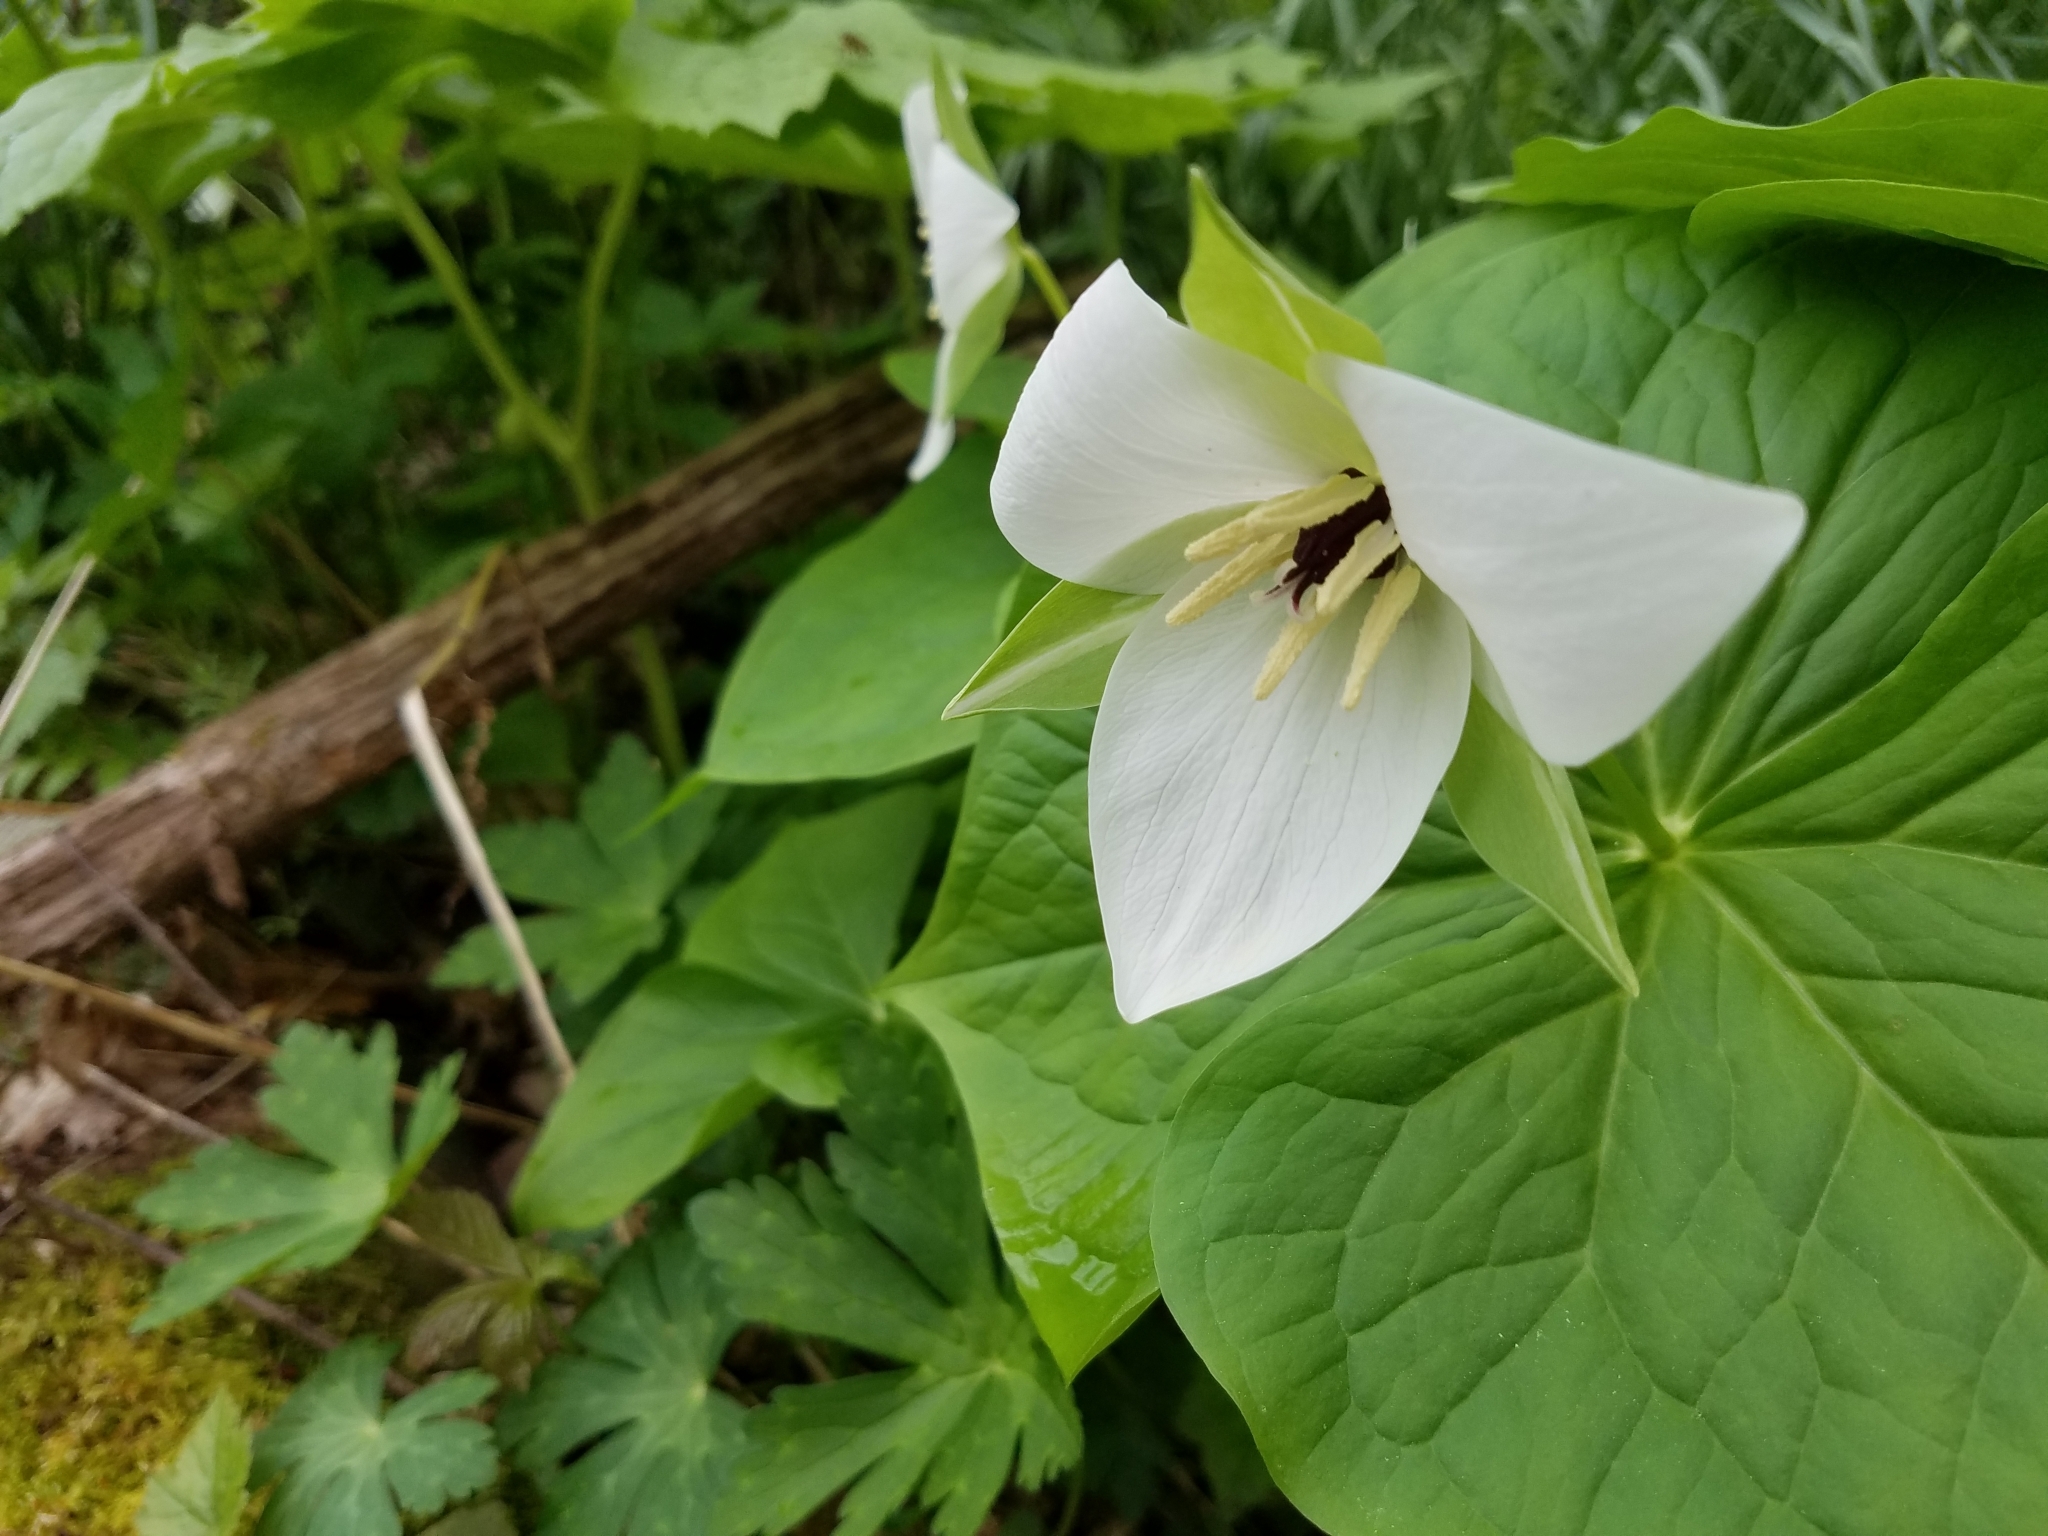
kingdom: Plantae
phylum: Tracheophyta
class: Liliopsida
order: Liliales
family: Melanthiaceae
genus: Trillium
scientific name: Trillium simile
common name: Confusing trillium
